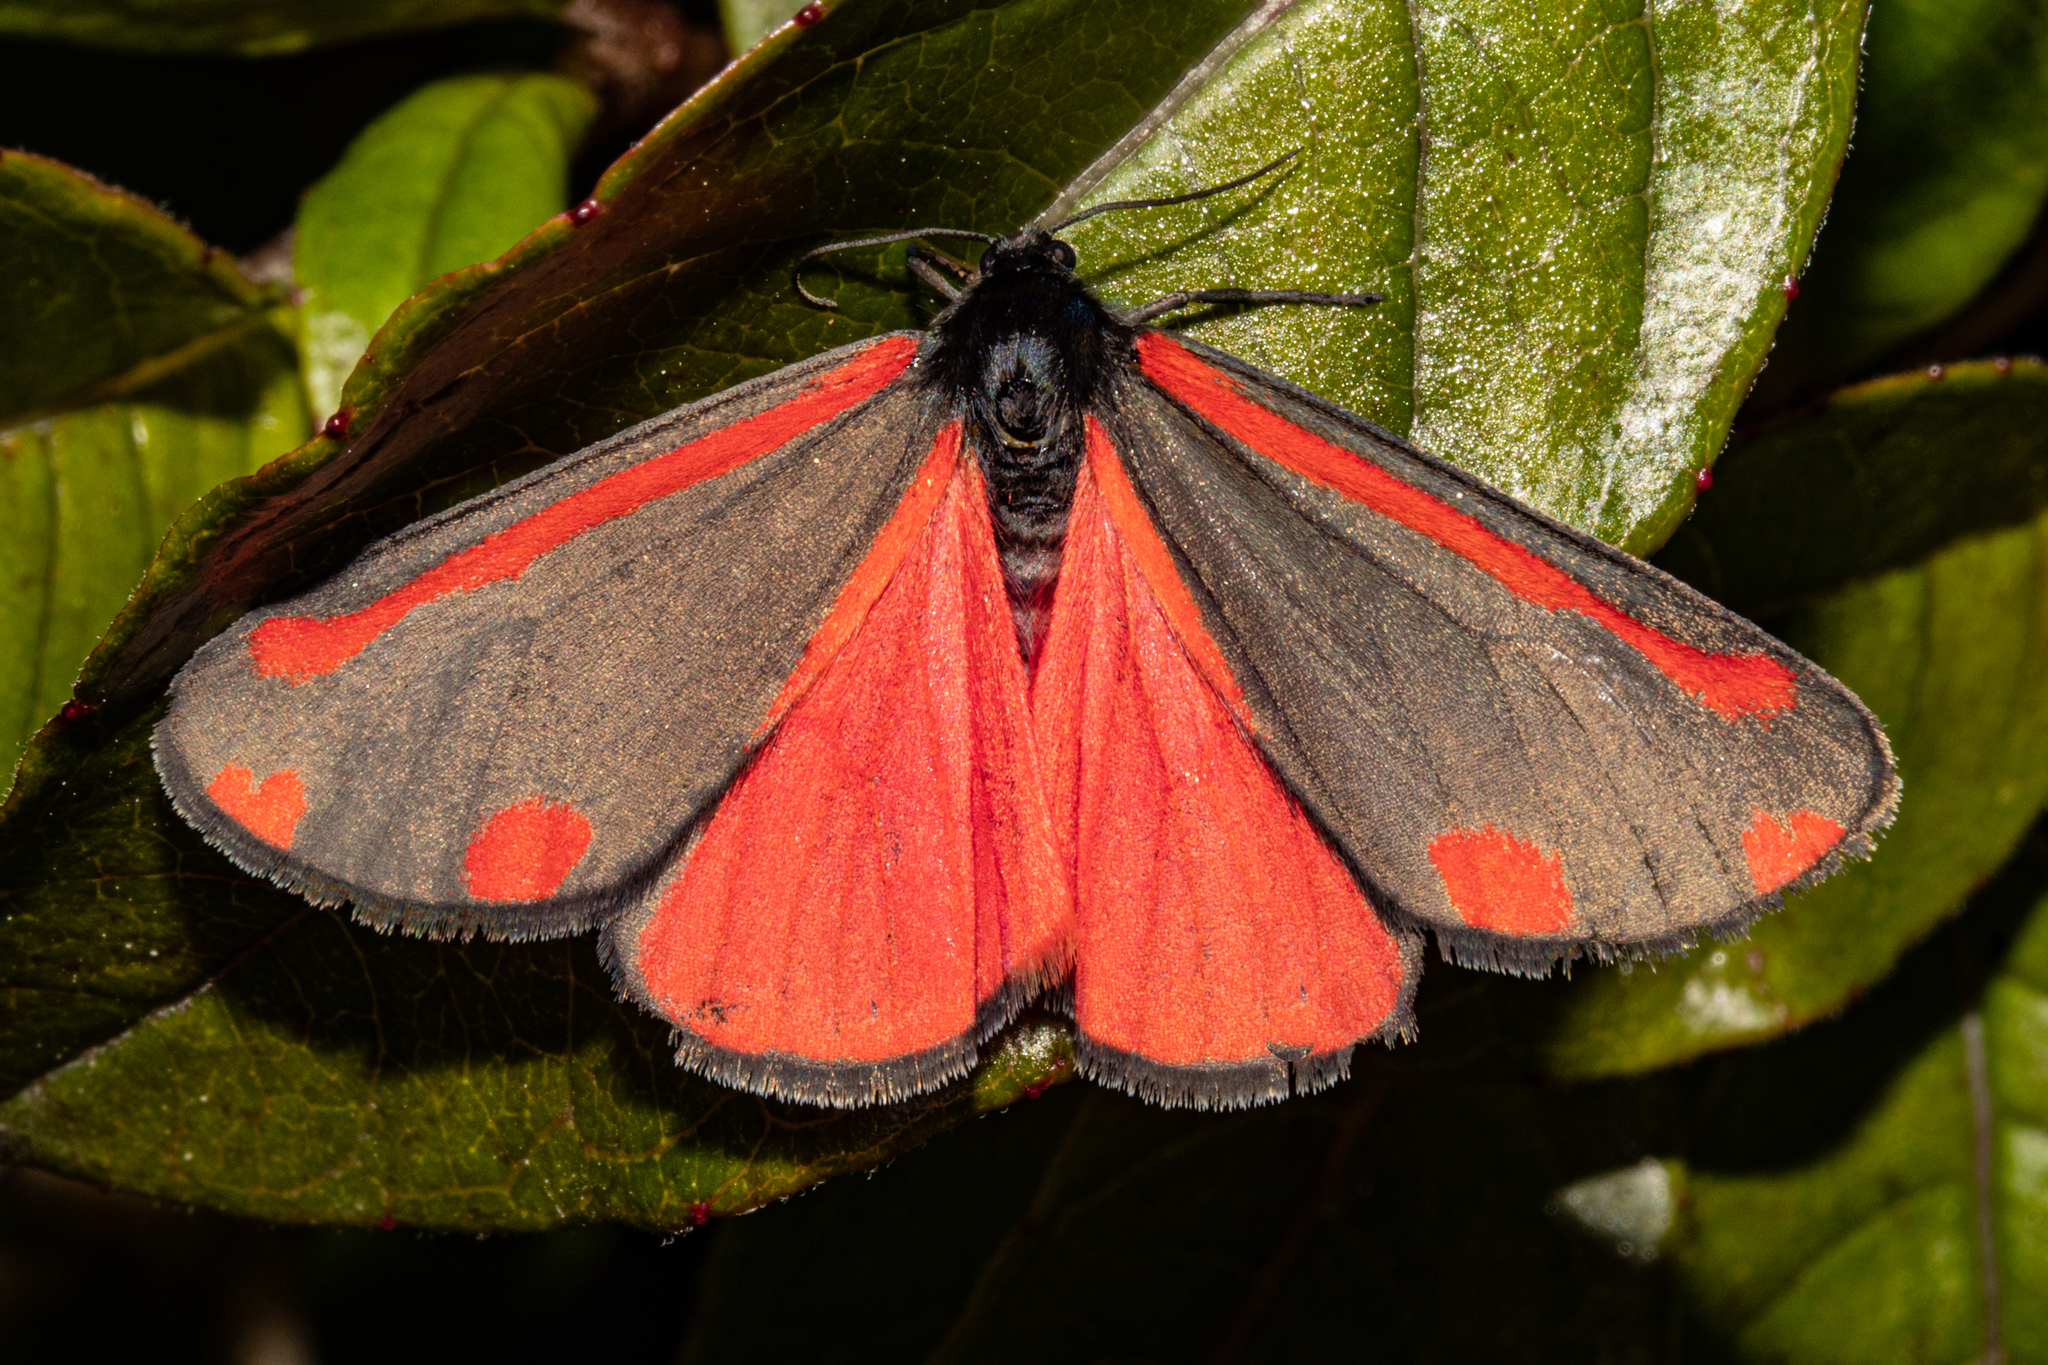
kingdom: Animalia
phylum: Arthropoda
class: Insecta
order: Lepidoptera
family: Erebidae
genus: Tyria
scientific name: Tyria jacobaeae
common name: Cinnabar
